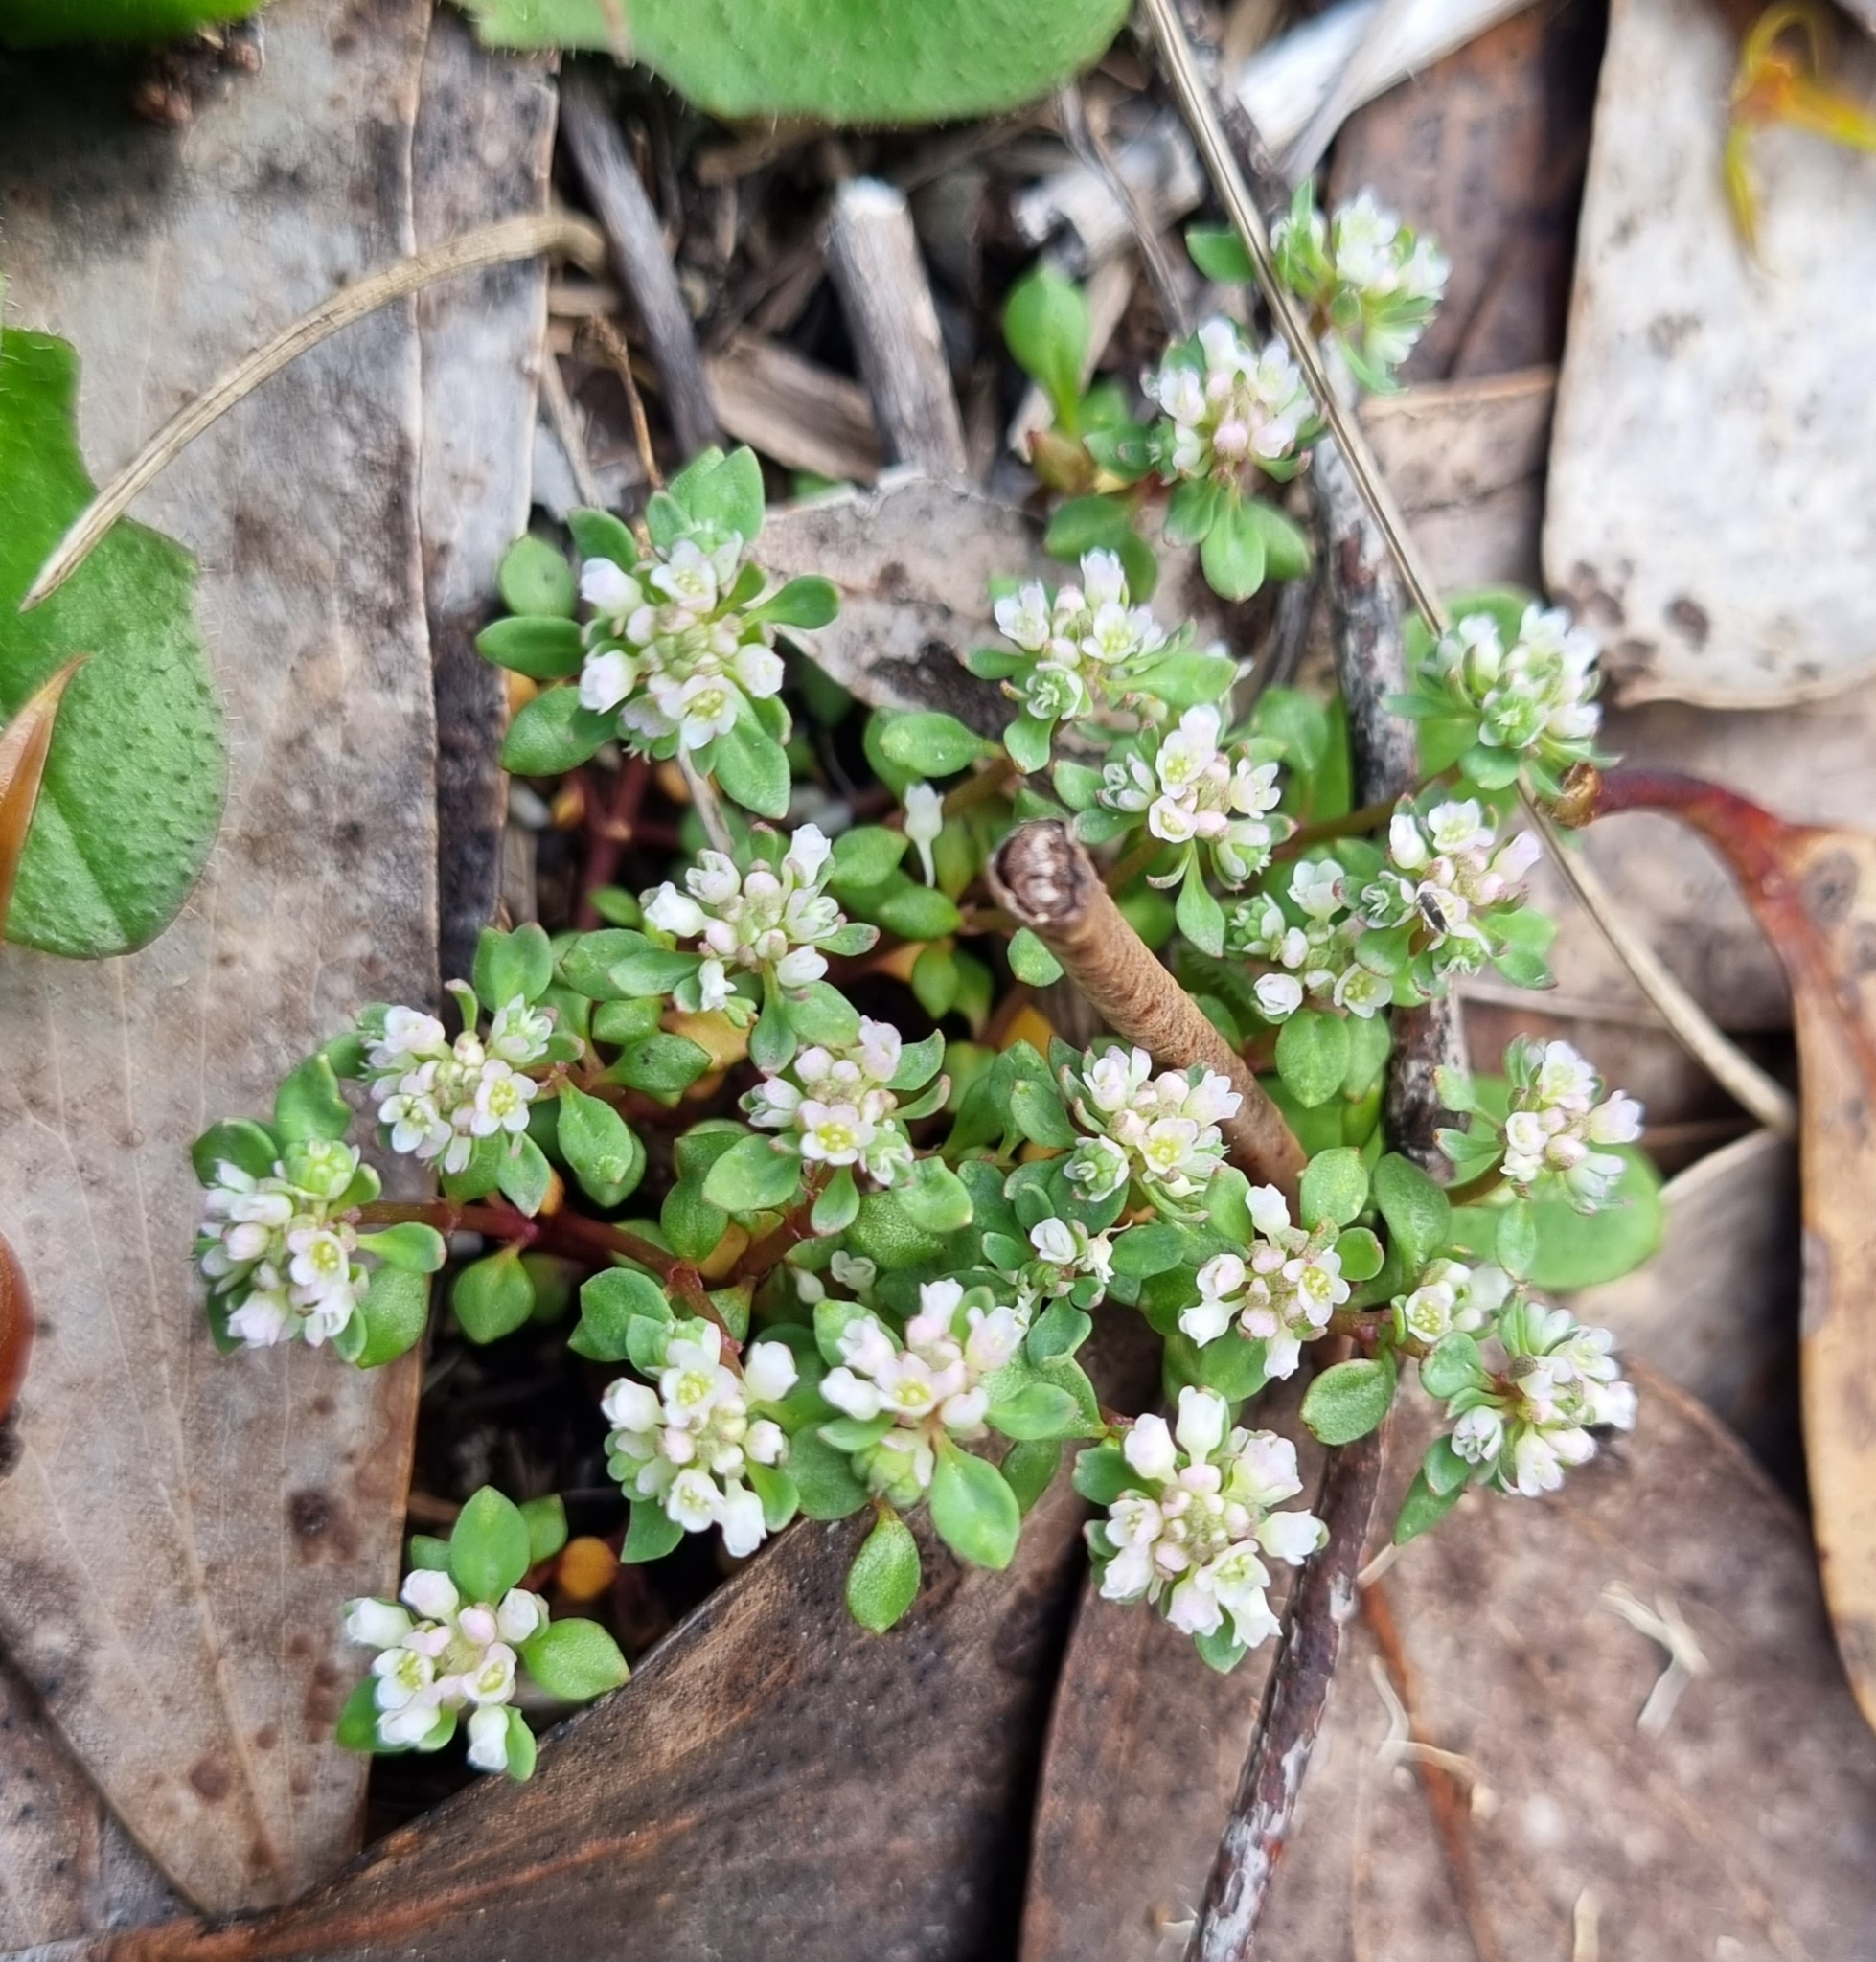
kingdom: Plantae
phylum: Tracheophyta
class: Magnoliopsida
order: Malpighiales
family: Phyllanthaceae
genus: Poranthera
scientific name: Poranthera microphylla
